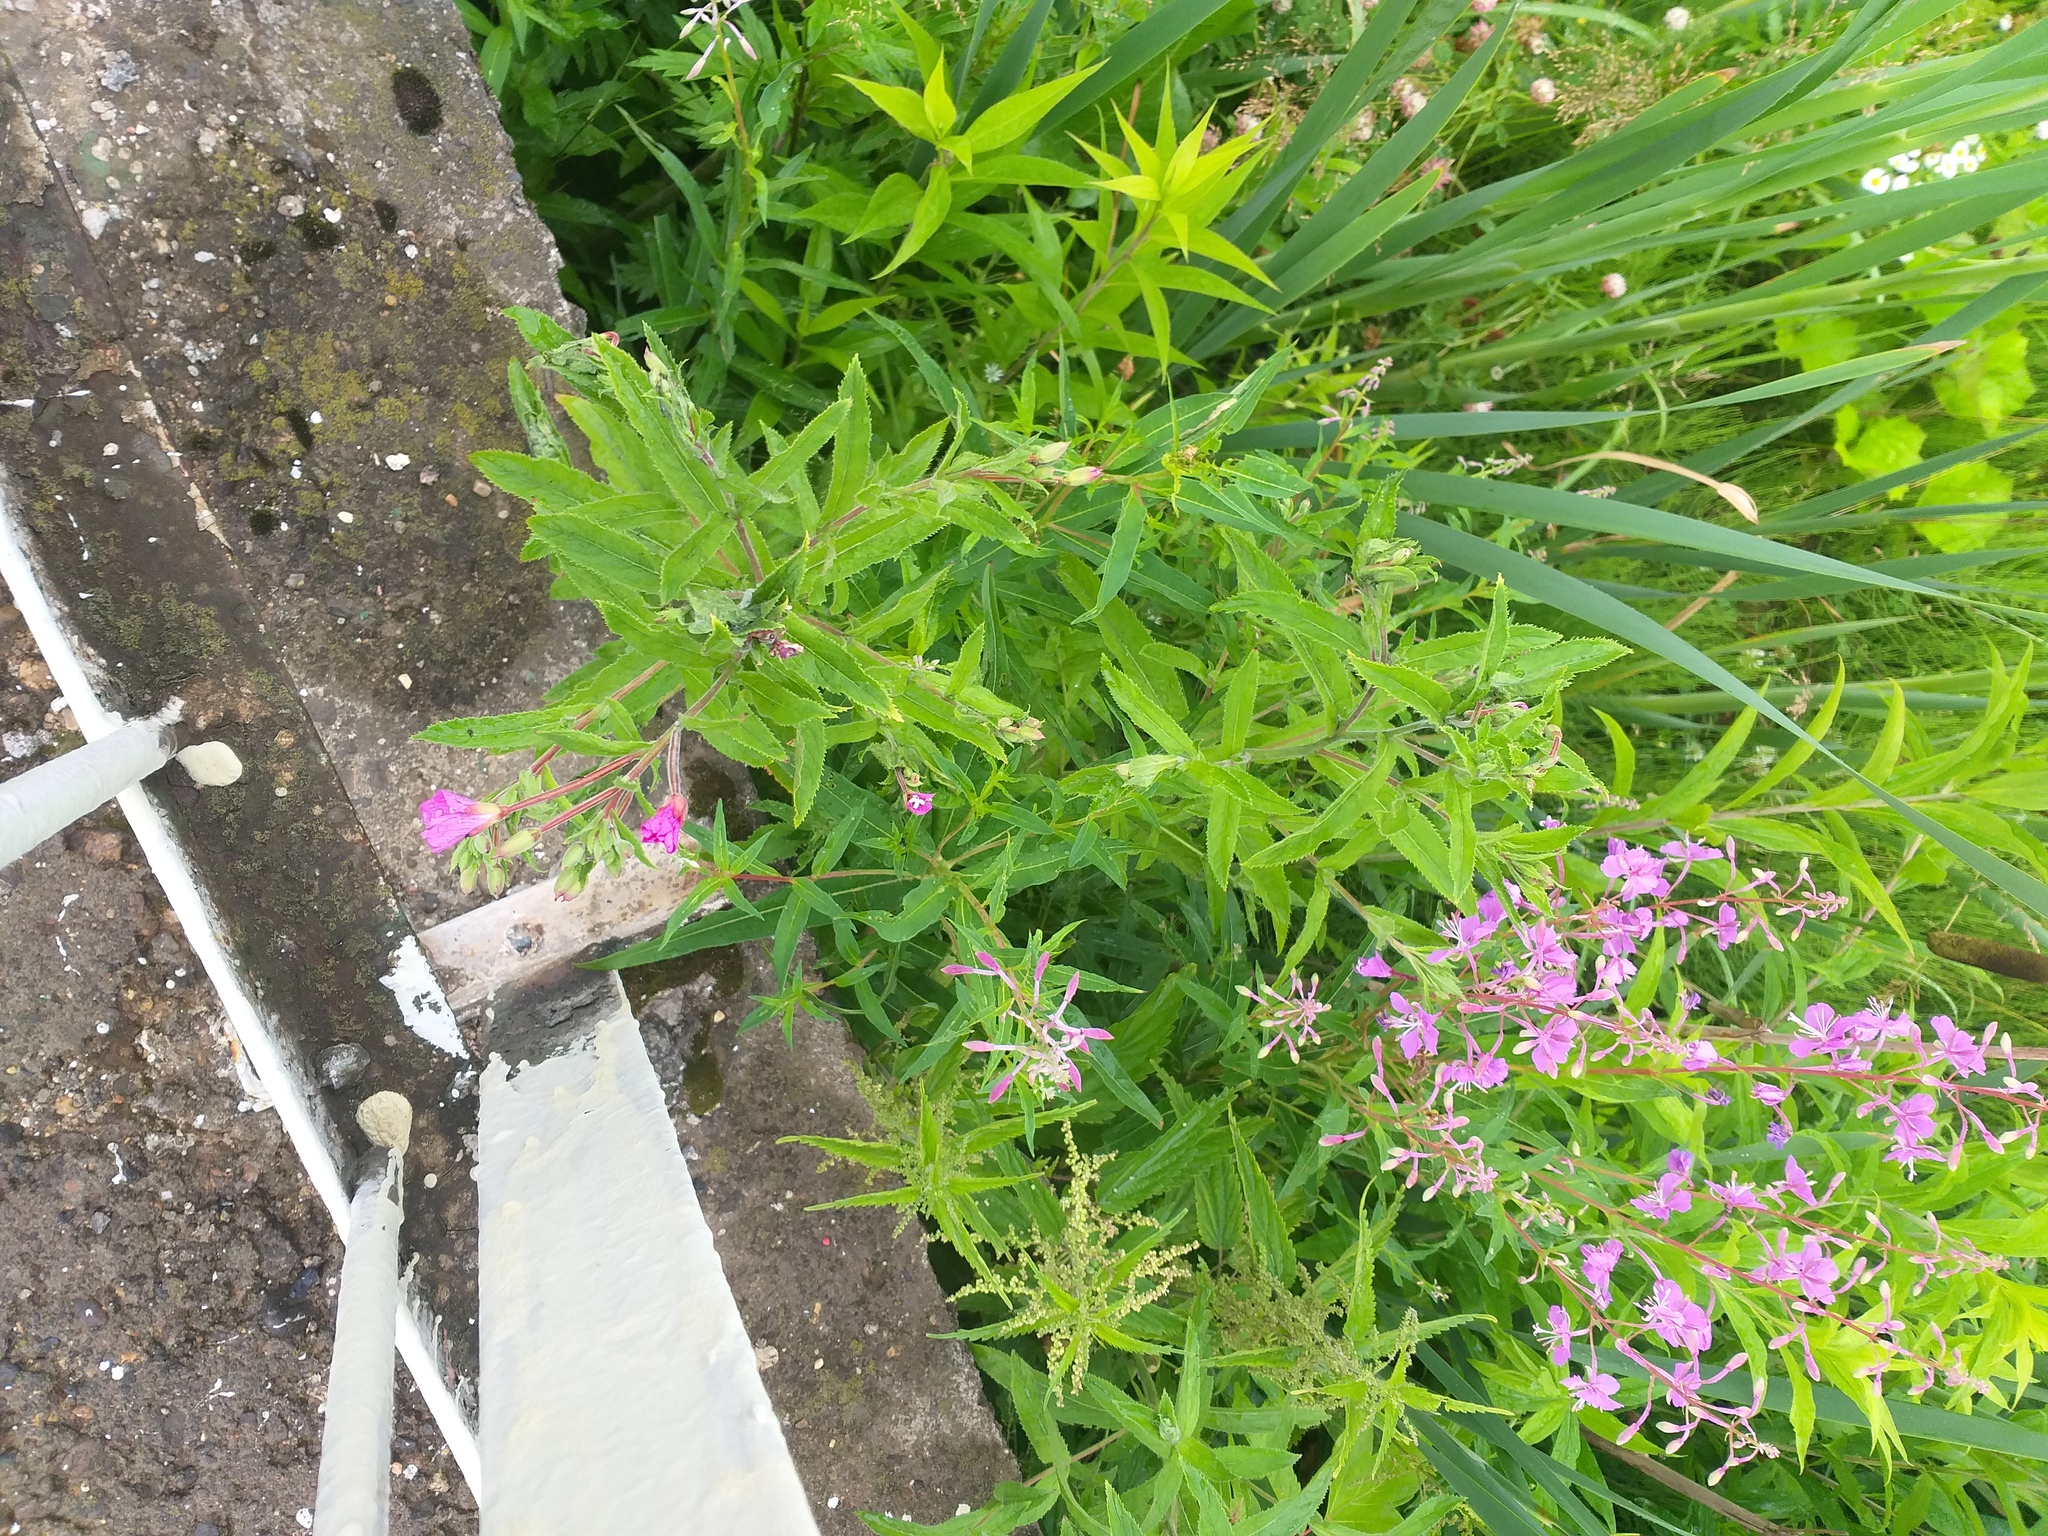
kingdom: Plantae
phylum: Tracheophyta
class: Magnoliopsida
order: Myrtales
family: Onagraceae
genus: Chamaenerion
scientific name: Chamaenerion angustifolium
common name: Fireweed
